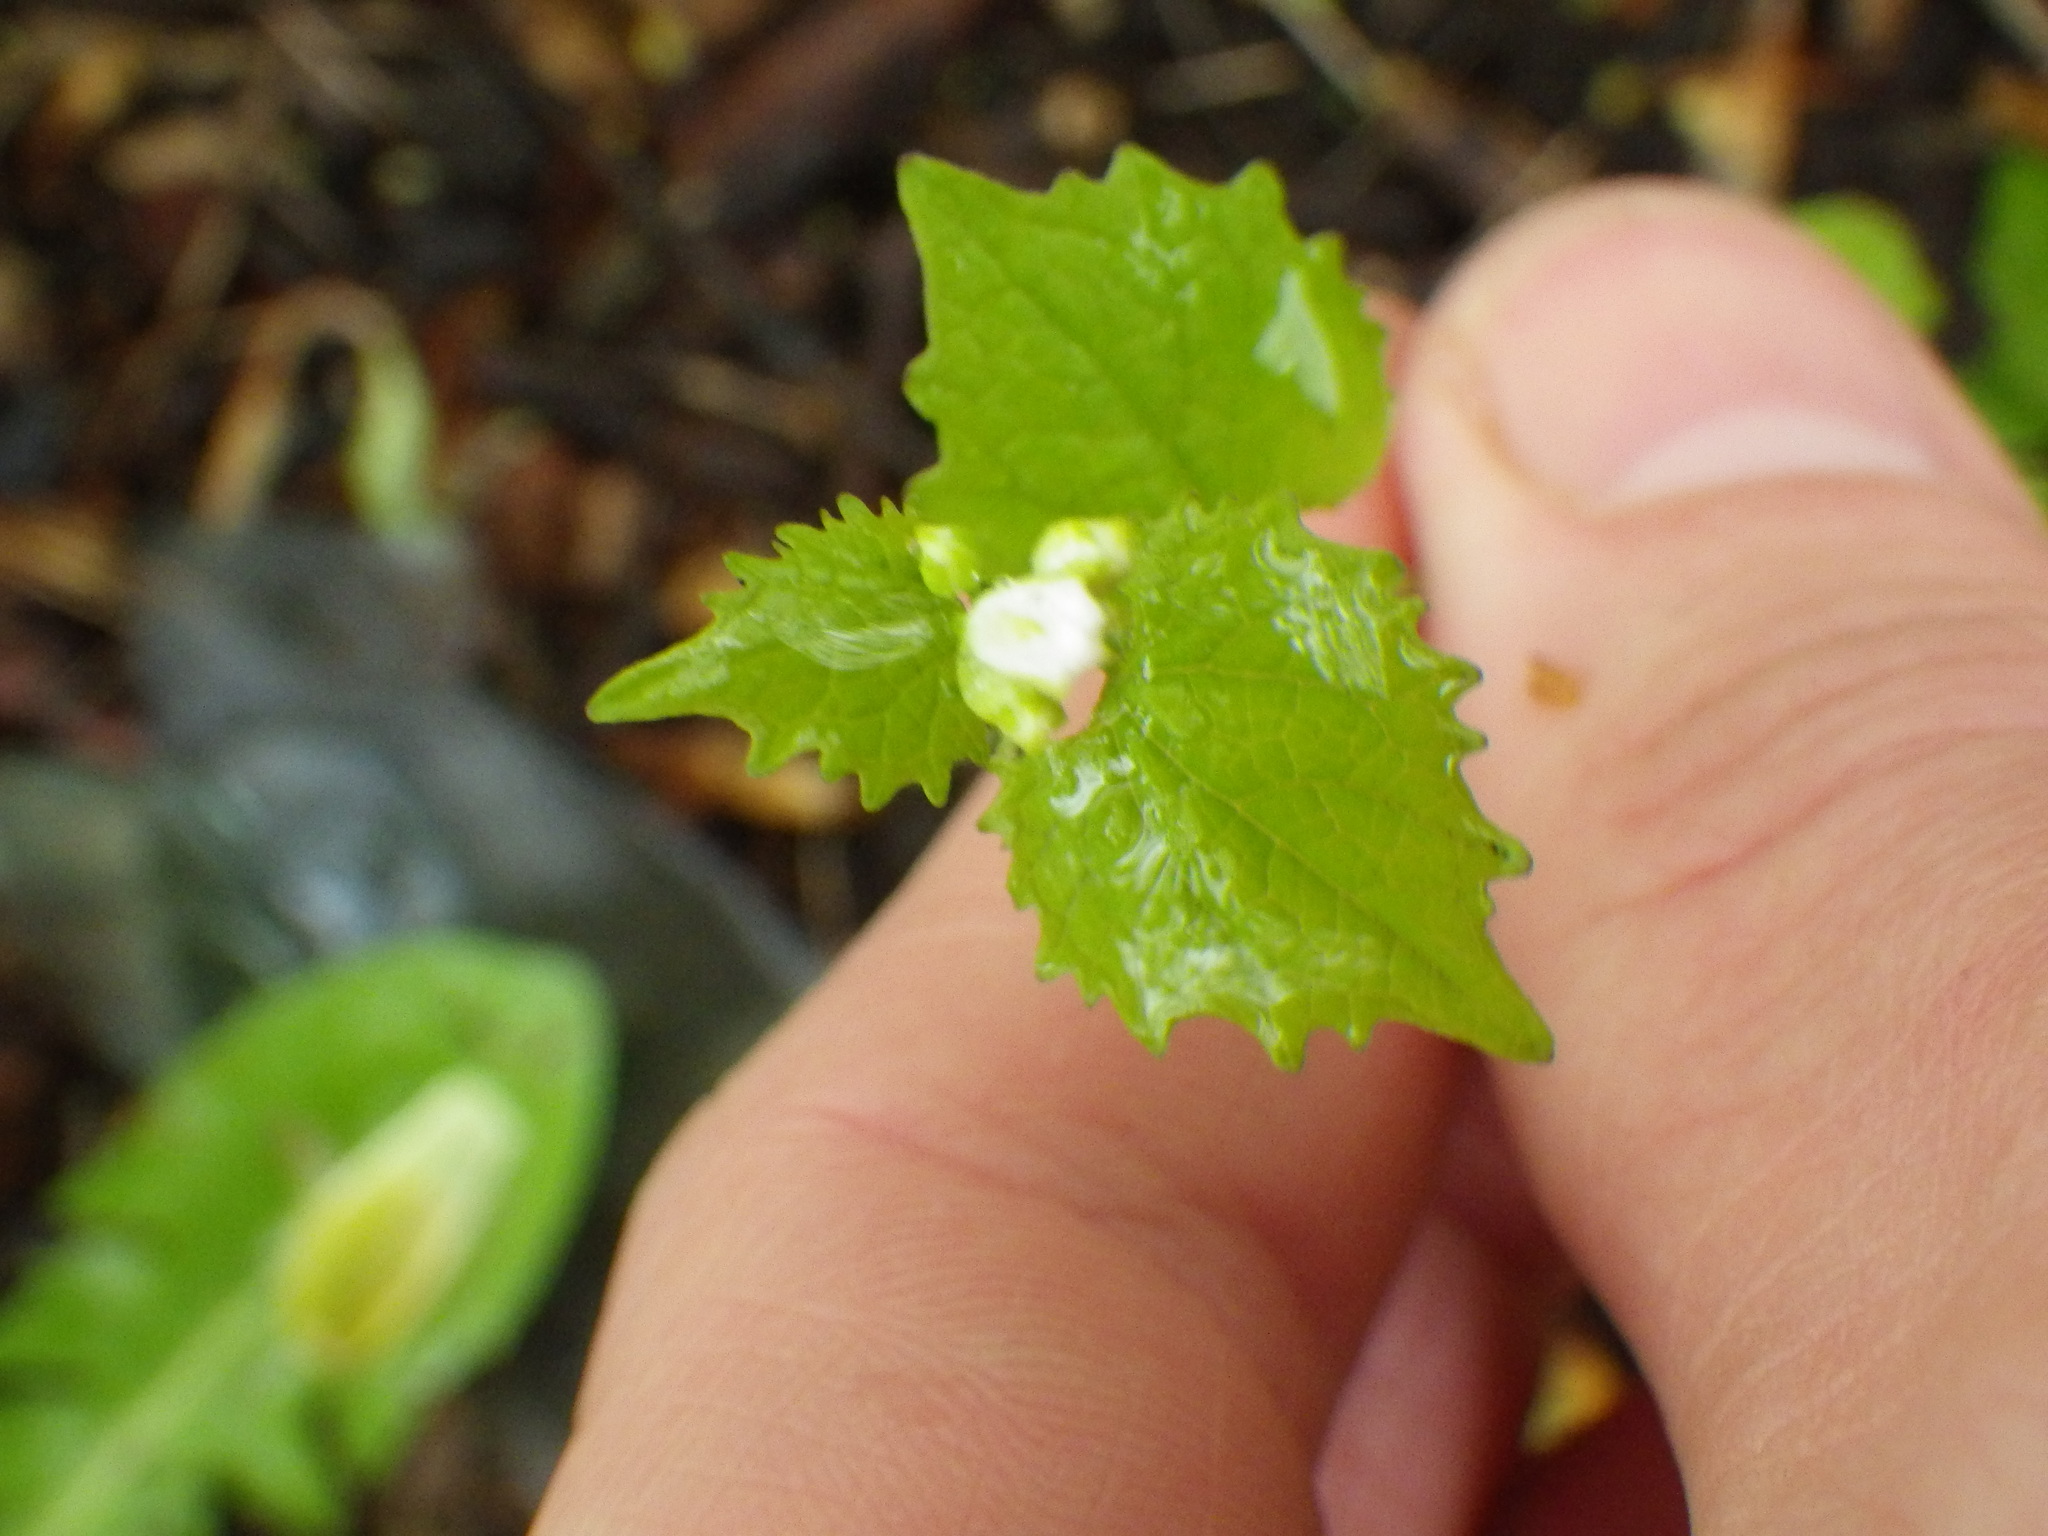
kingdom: Plantae
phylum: Tracheophyta
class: Magnoliopsida
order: Brassicales
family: Brassicaceae
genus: Alliaria
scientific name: Alliaria petiolata
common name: Garlic mustard
